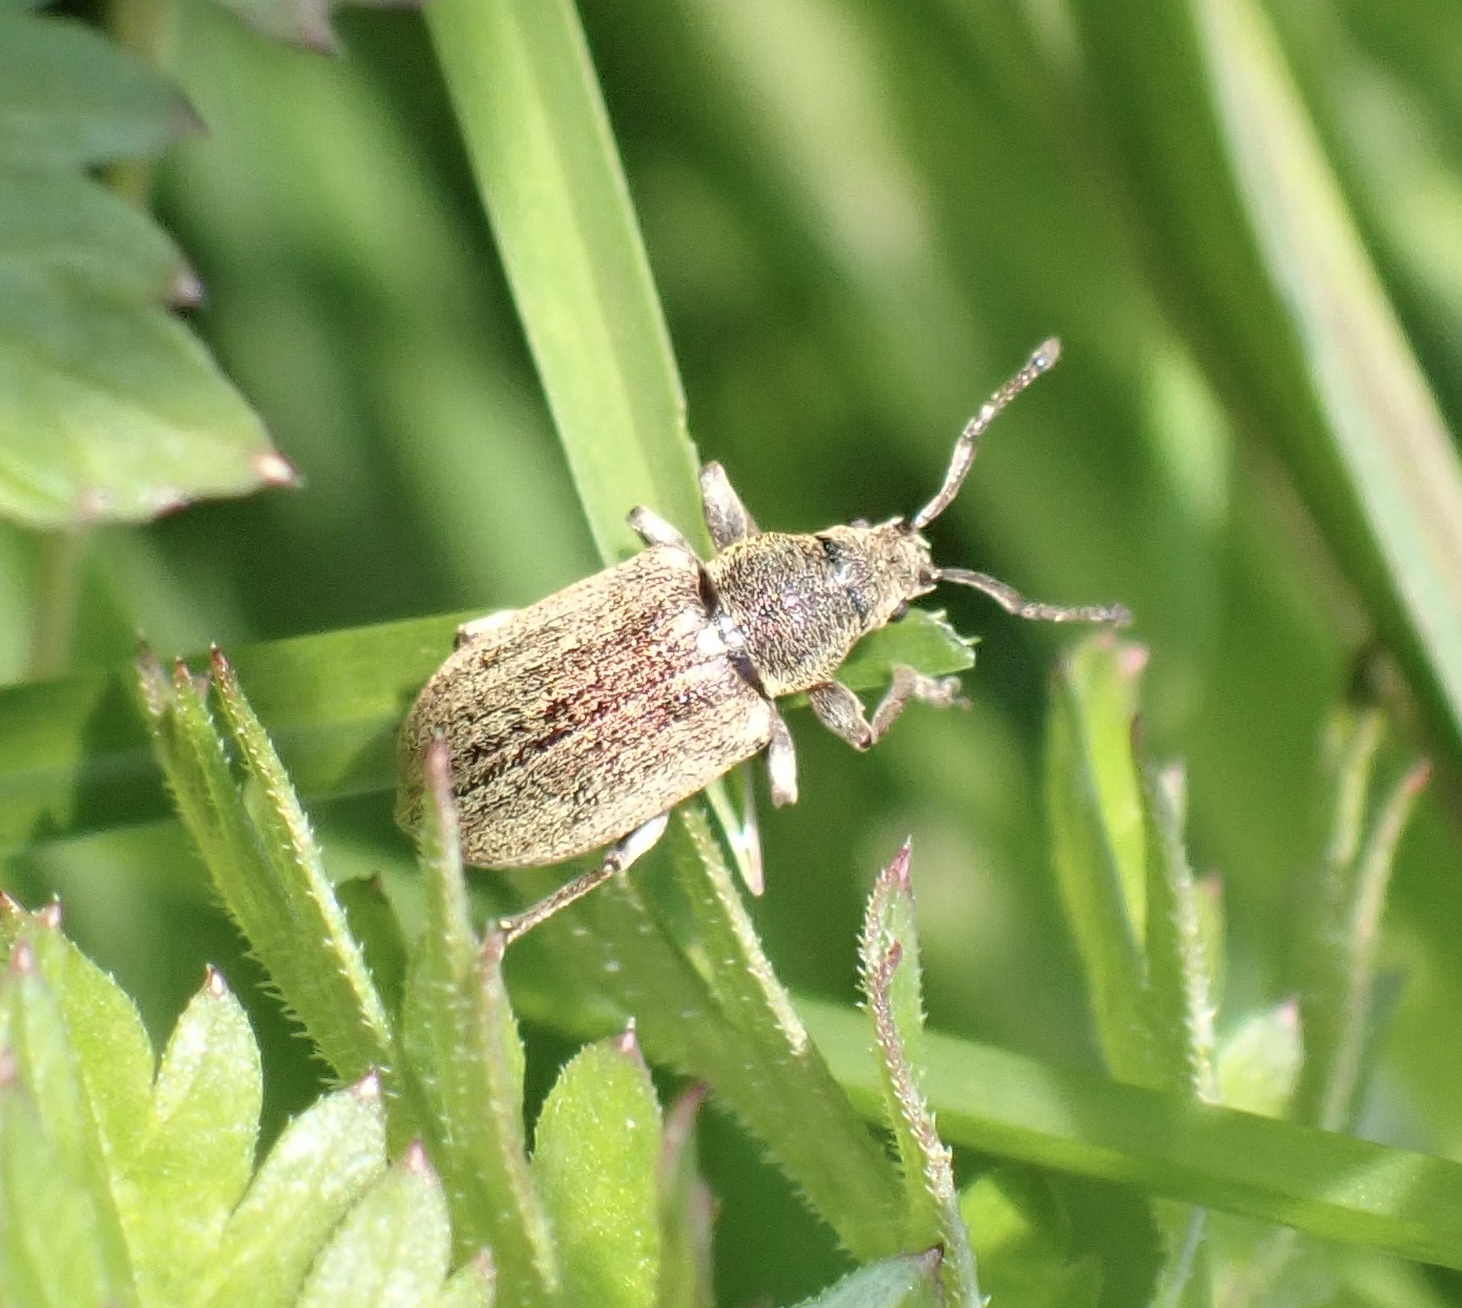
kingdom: Animalia
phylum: Arthropoda
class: Insecta
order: Coleoptera
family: Curculionidae
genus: Phyllobius
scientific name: Phyllobius pyri
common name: Common leaf weevil
